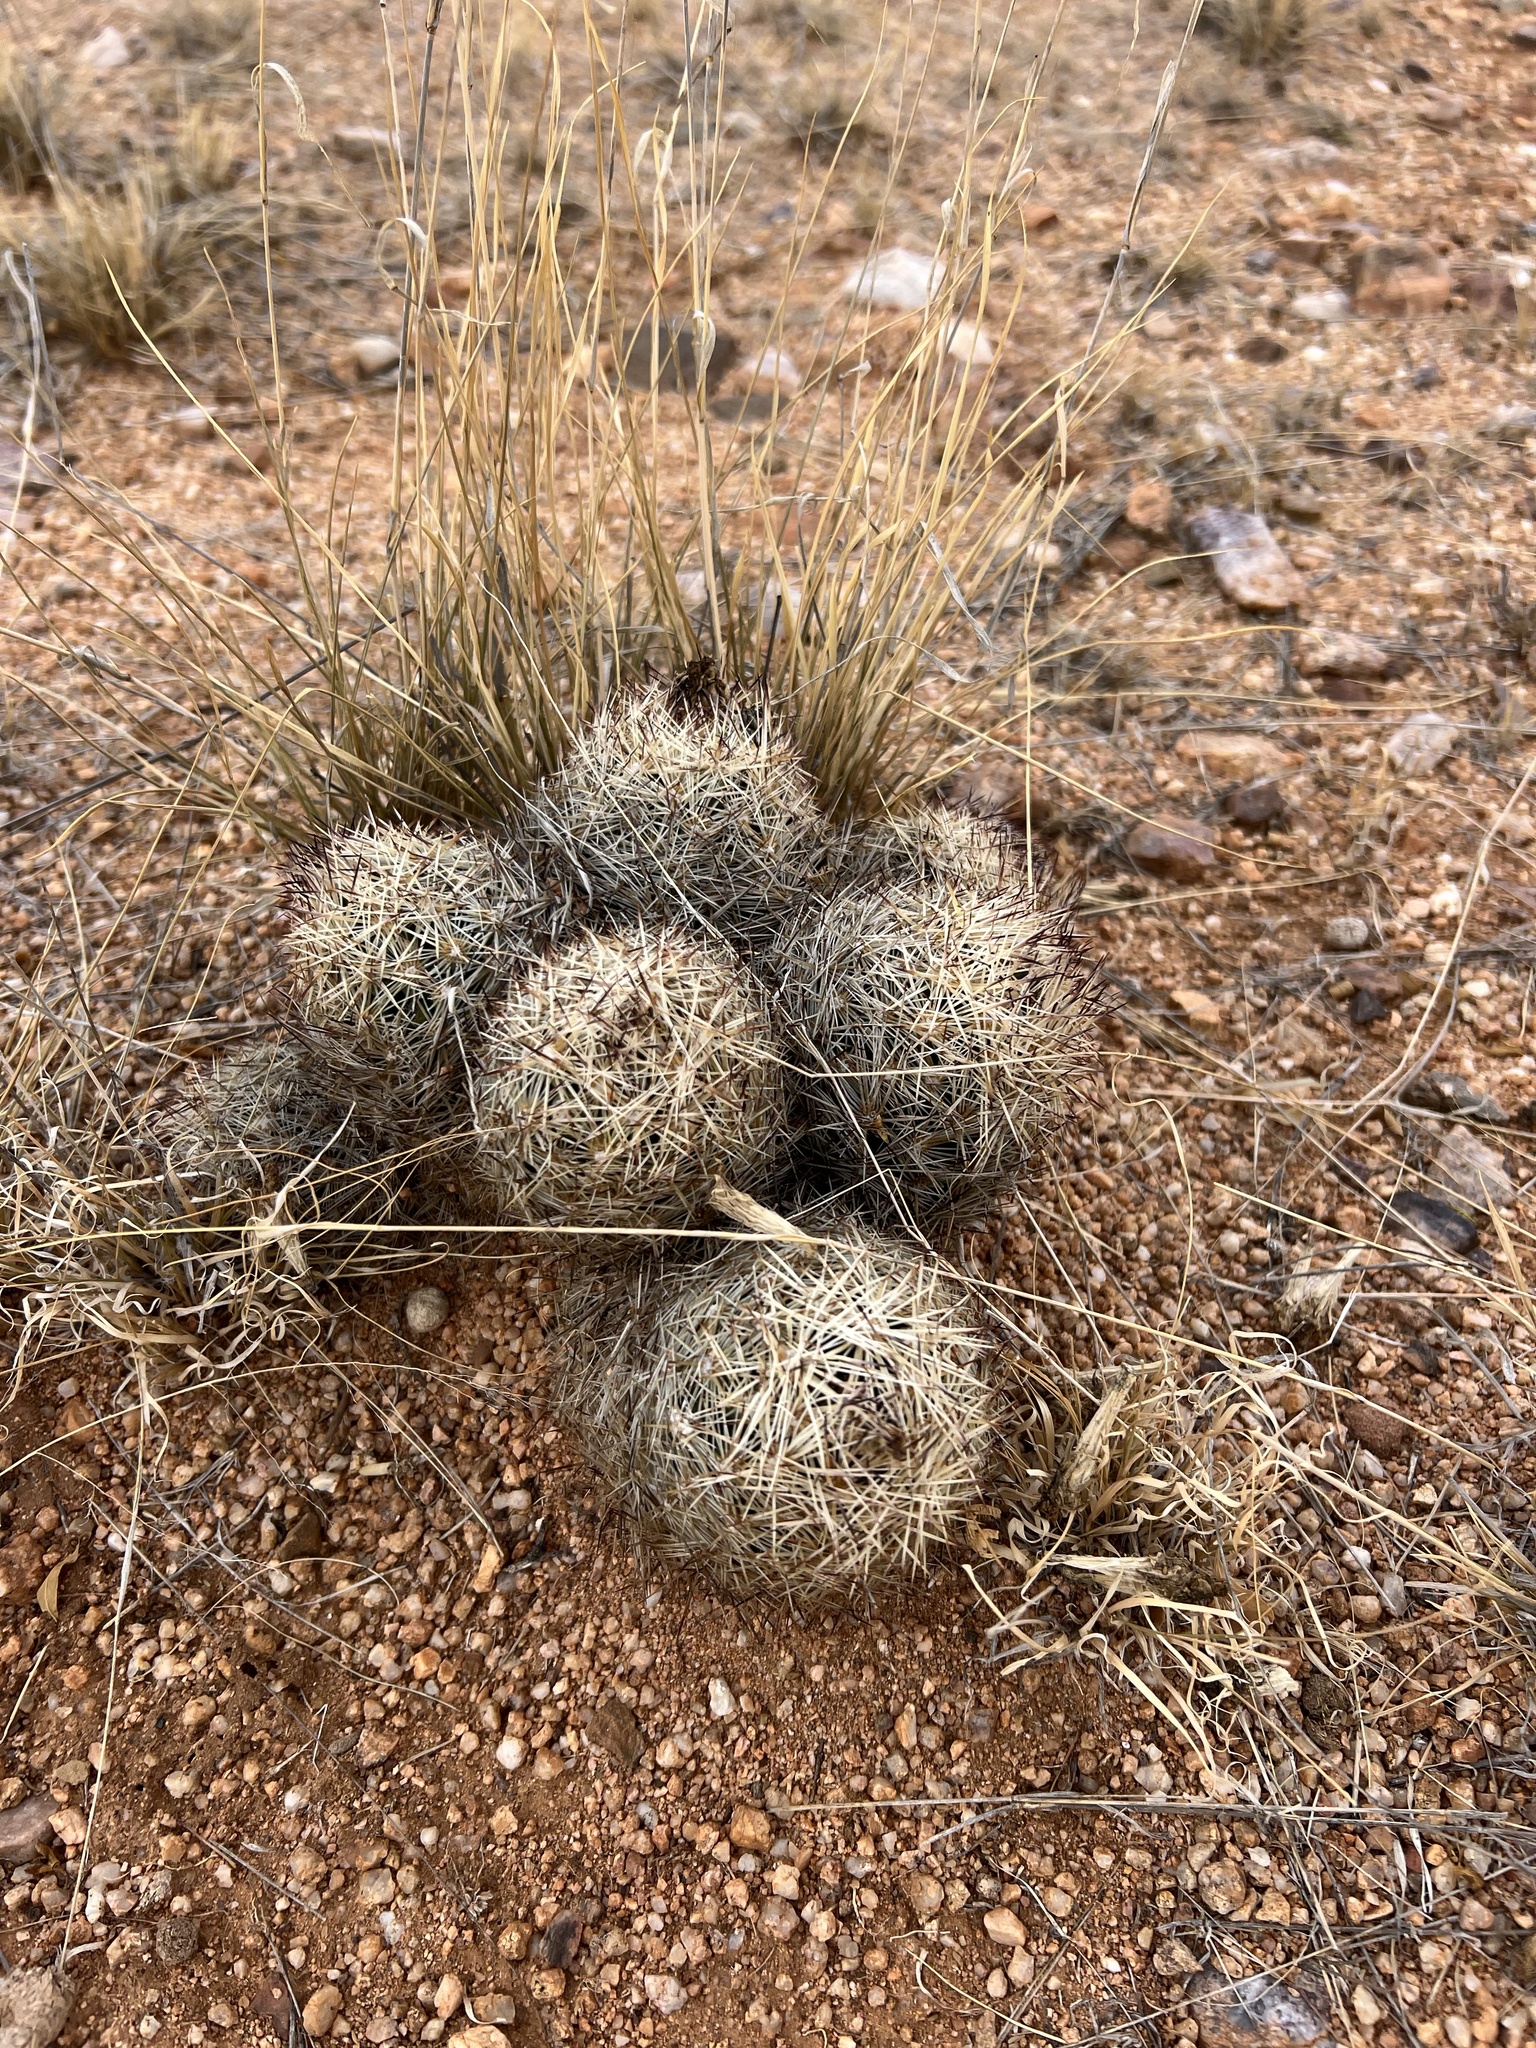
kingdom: Plantae
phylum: Tracheophyta
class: Magnoliopsida
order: Caryophyllales
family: Cactaceae
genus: Pelecyphora
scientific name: Pelecyphora vivipara
